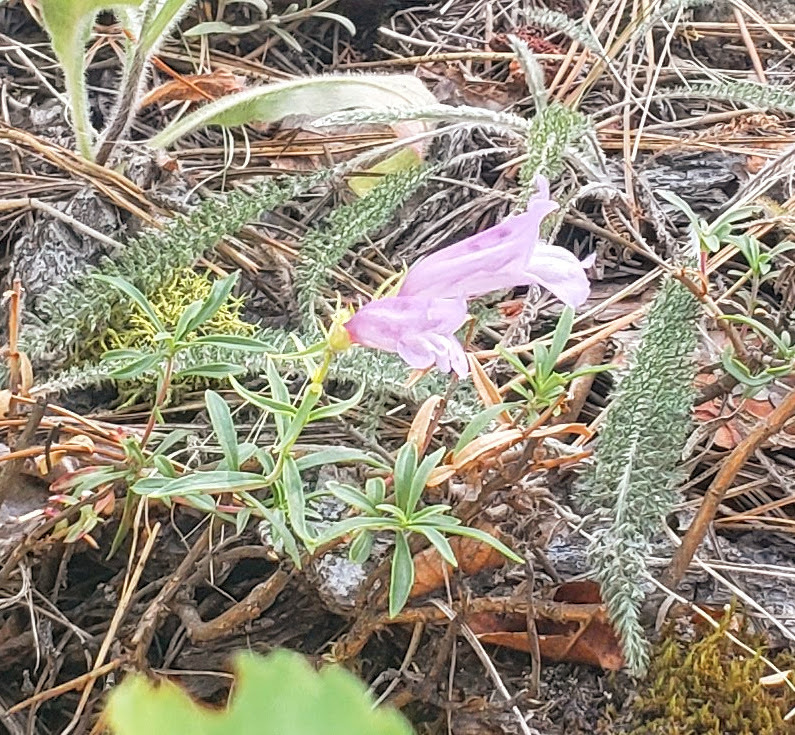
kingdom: Plantae
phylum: Tracheophyta
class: Magnoliopsida
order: Lamiales
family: Plantaginaceae
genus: Penstemon
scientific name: Penstemon fruticosus
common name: Bush penstemon
